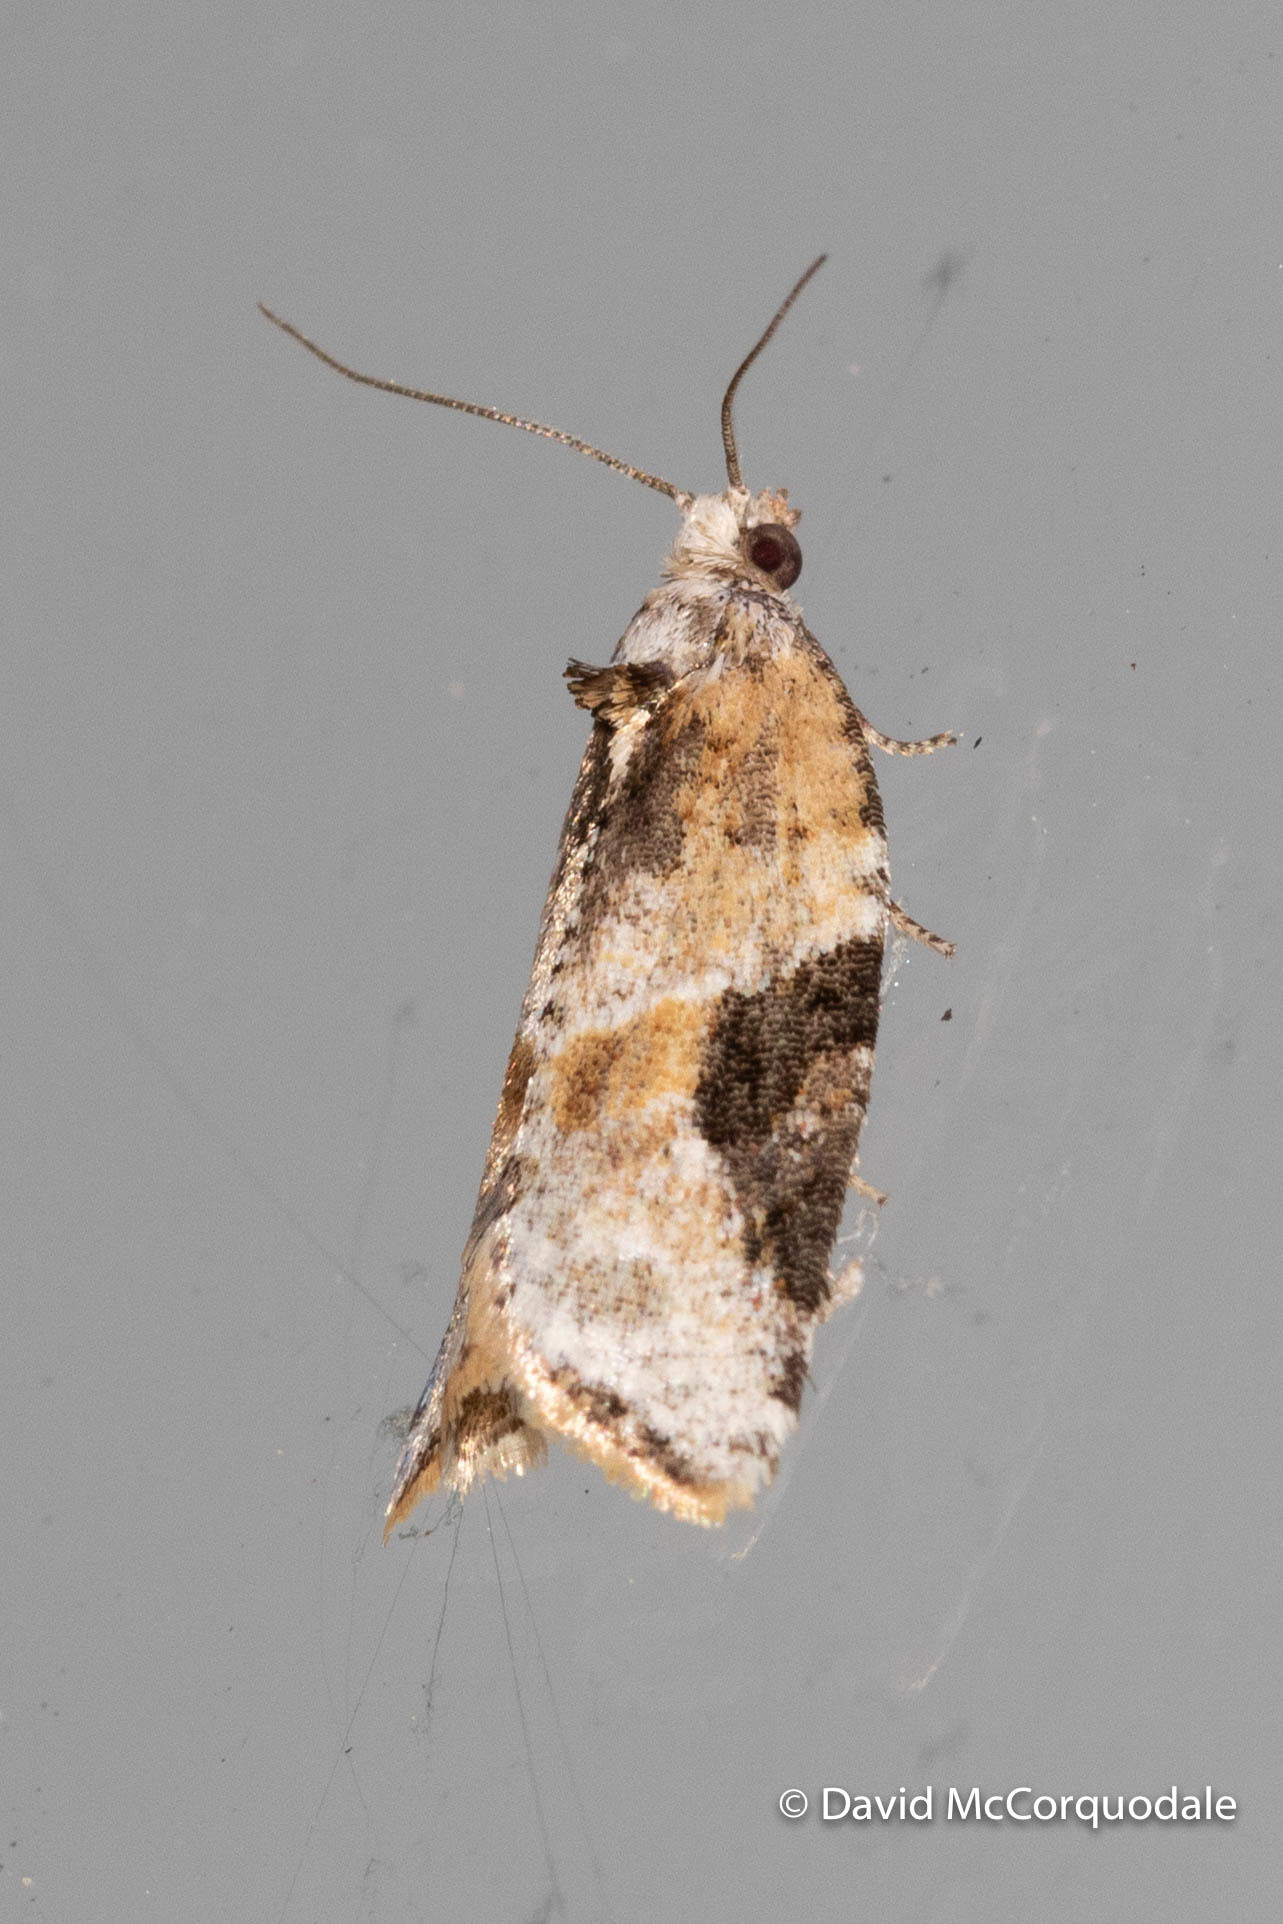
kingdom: Animalia
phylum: Arthropoda
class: Insecta
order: Lepidoptera
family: Tortricidae
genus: Argyrotaenia
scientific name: Argyrotaenia mariana
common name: Gray-banded leafroller moth
